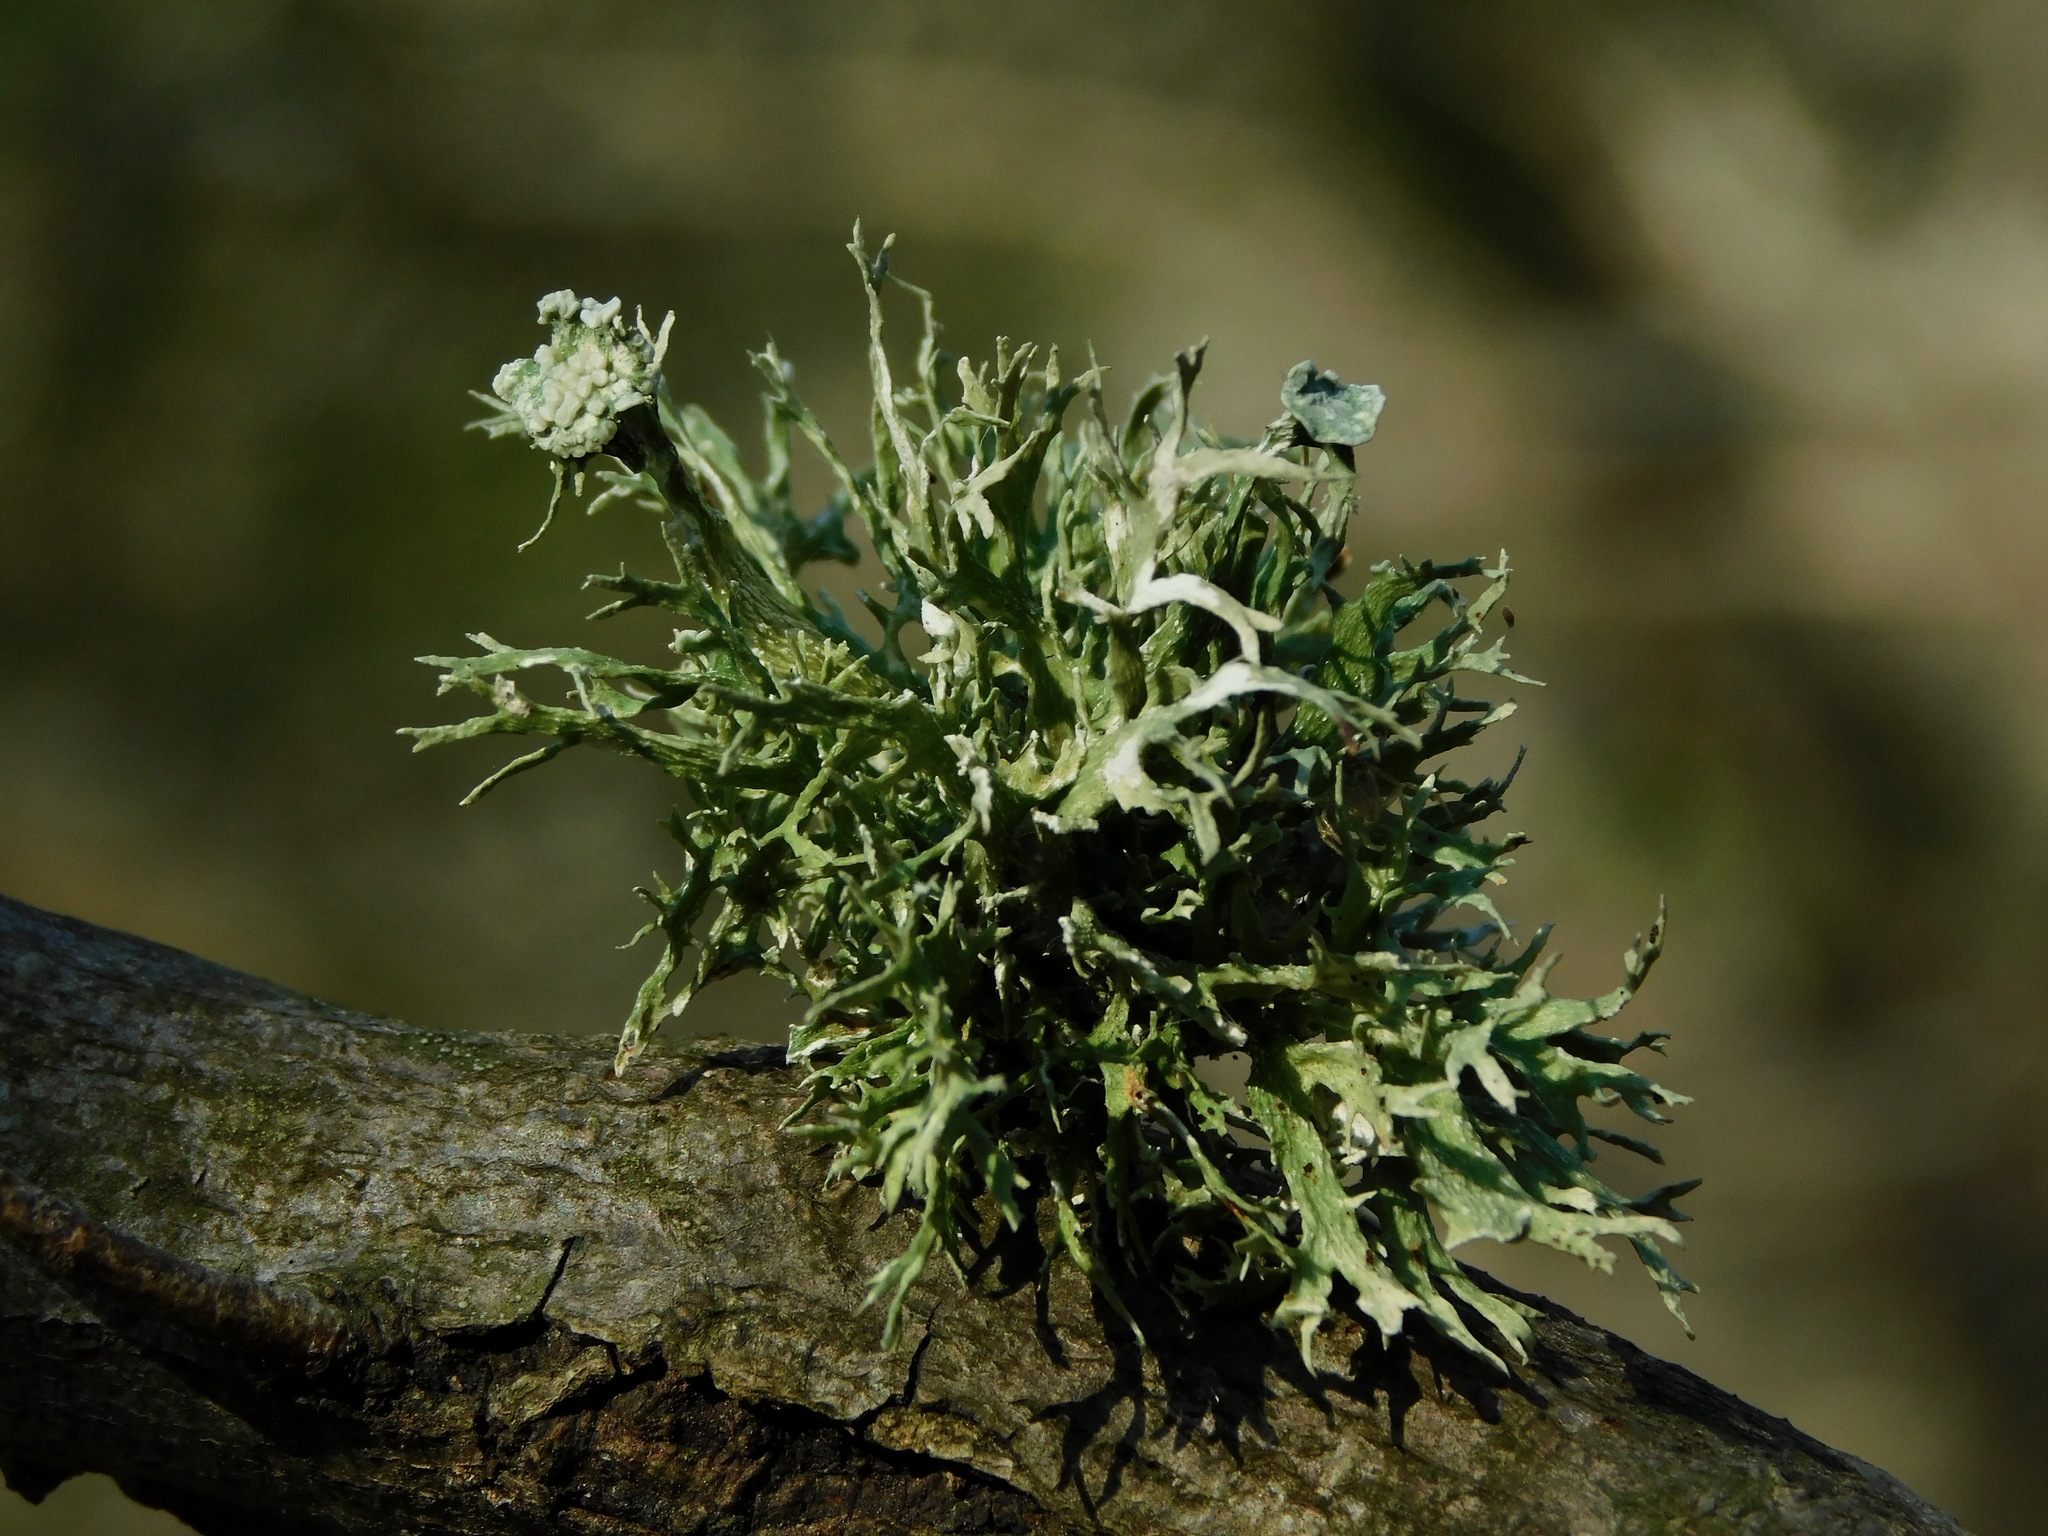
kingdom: Fungi
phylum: Ascomycota
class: Lecanoromycetes
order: Lecanorales
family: Ramalinaceae
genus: Ramalina
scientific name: Ramalina americana
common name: Sinewed bush lichen
